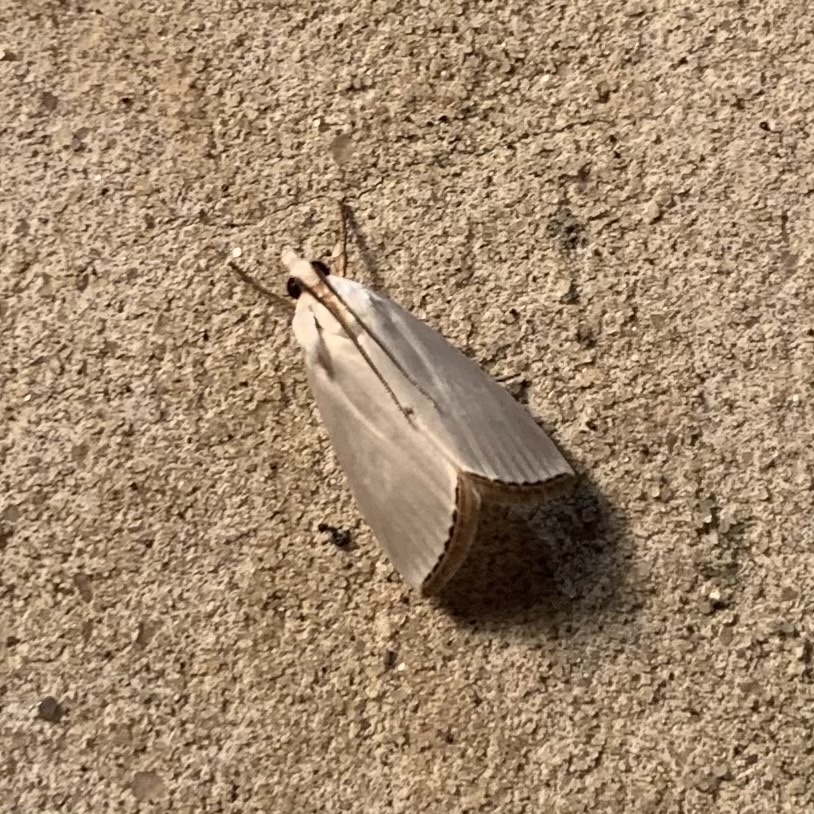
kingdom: Animalia
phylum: Arthropoda
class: Insecta
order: Lepidoptera
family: Crambidae
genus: Argyria
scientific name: Argyria nivalis
